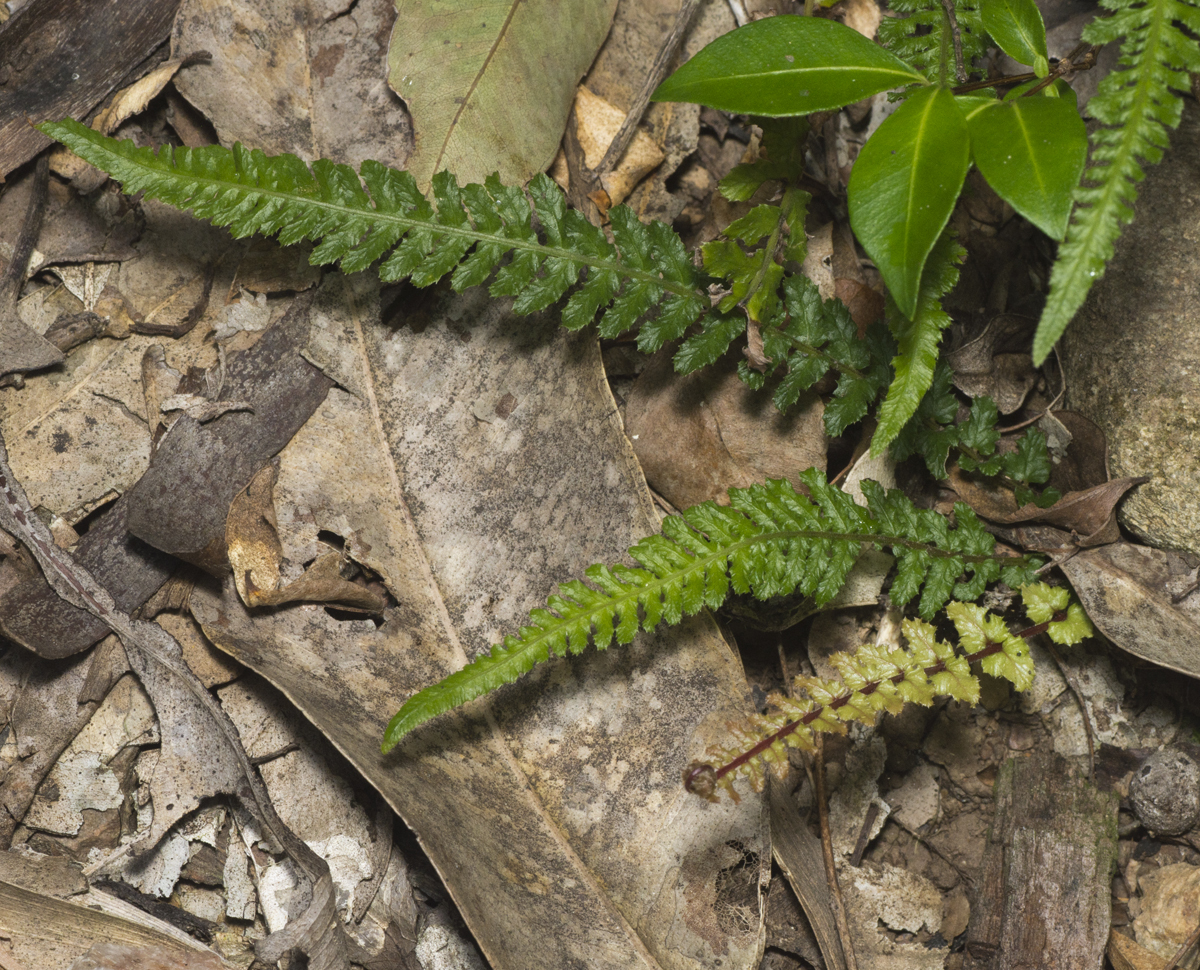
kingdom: Plantae
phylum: Tracheophyta
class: Polypodiopsida
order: Polypodiales
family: Blechnaceae
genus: Doodia
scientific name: Doodia australis
